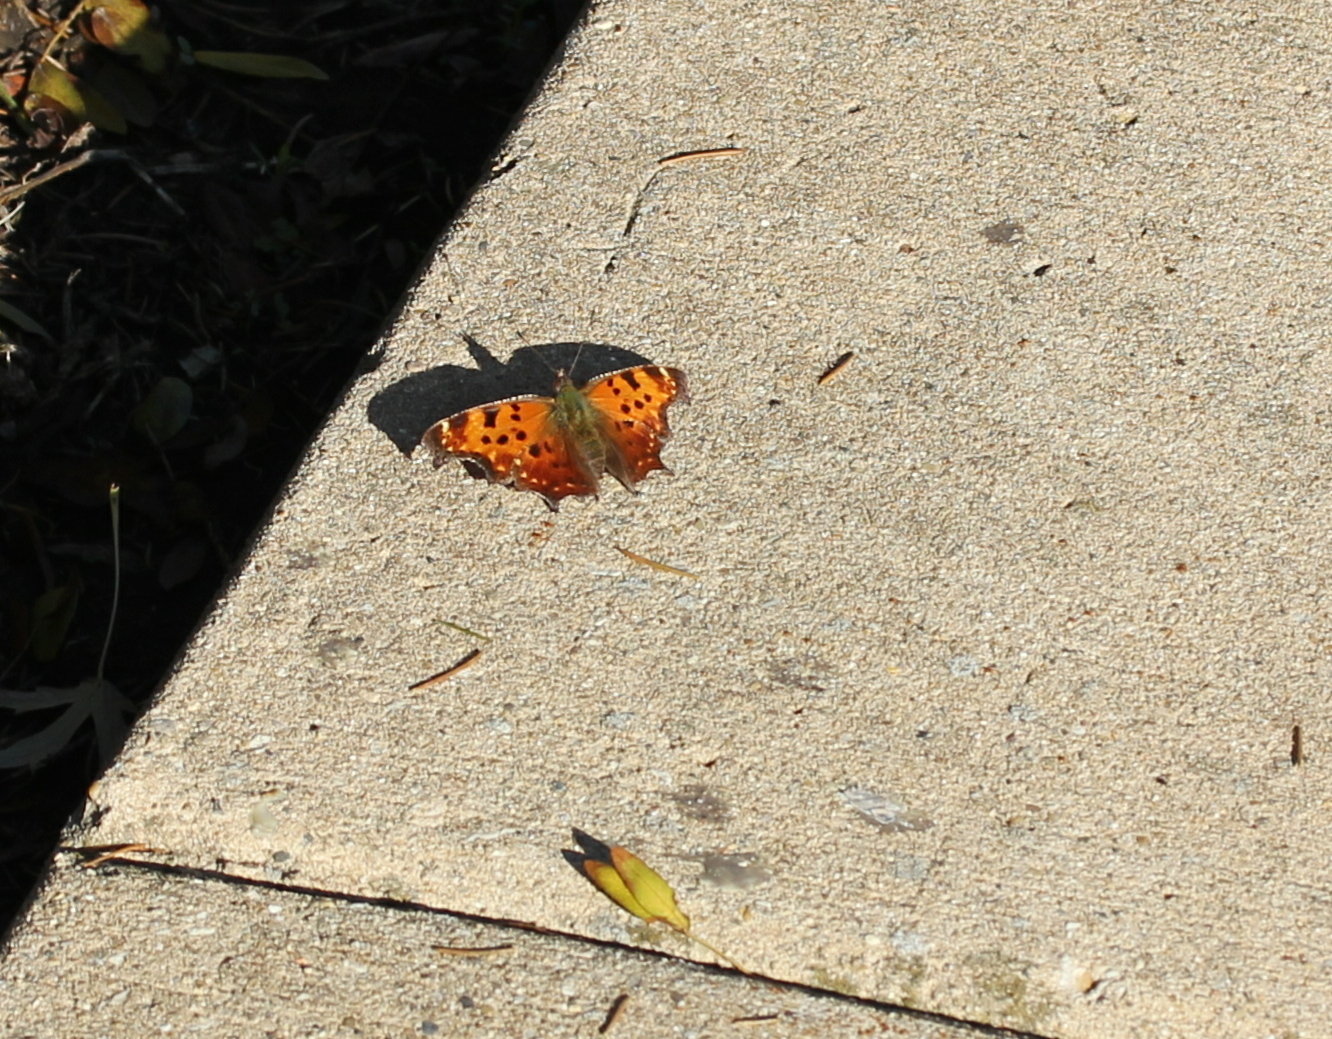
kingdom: Animalia
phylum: Arthropoda
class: Insecta
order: Lepidoptera
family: Nymphalidae
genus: Polygonia
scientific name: Polygonia comma
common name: Eastern comma
